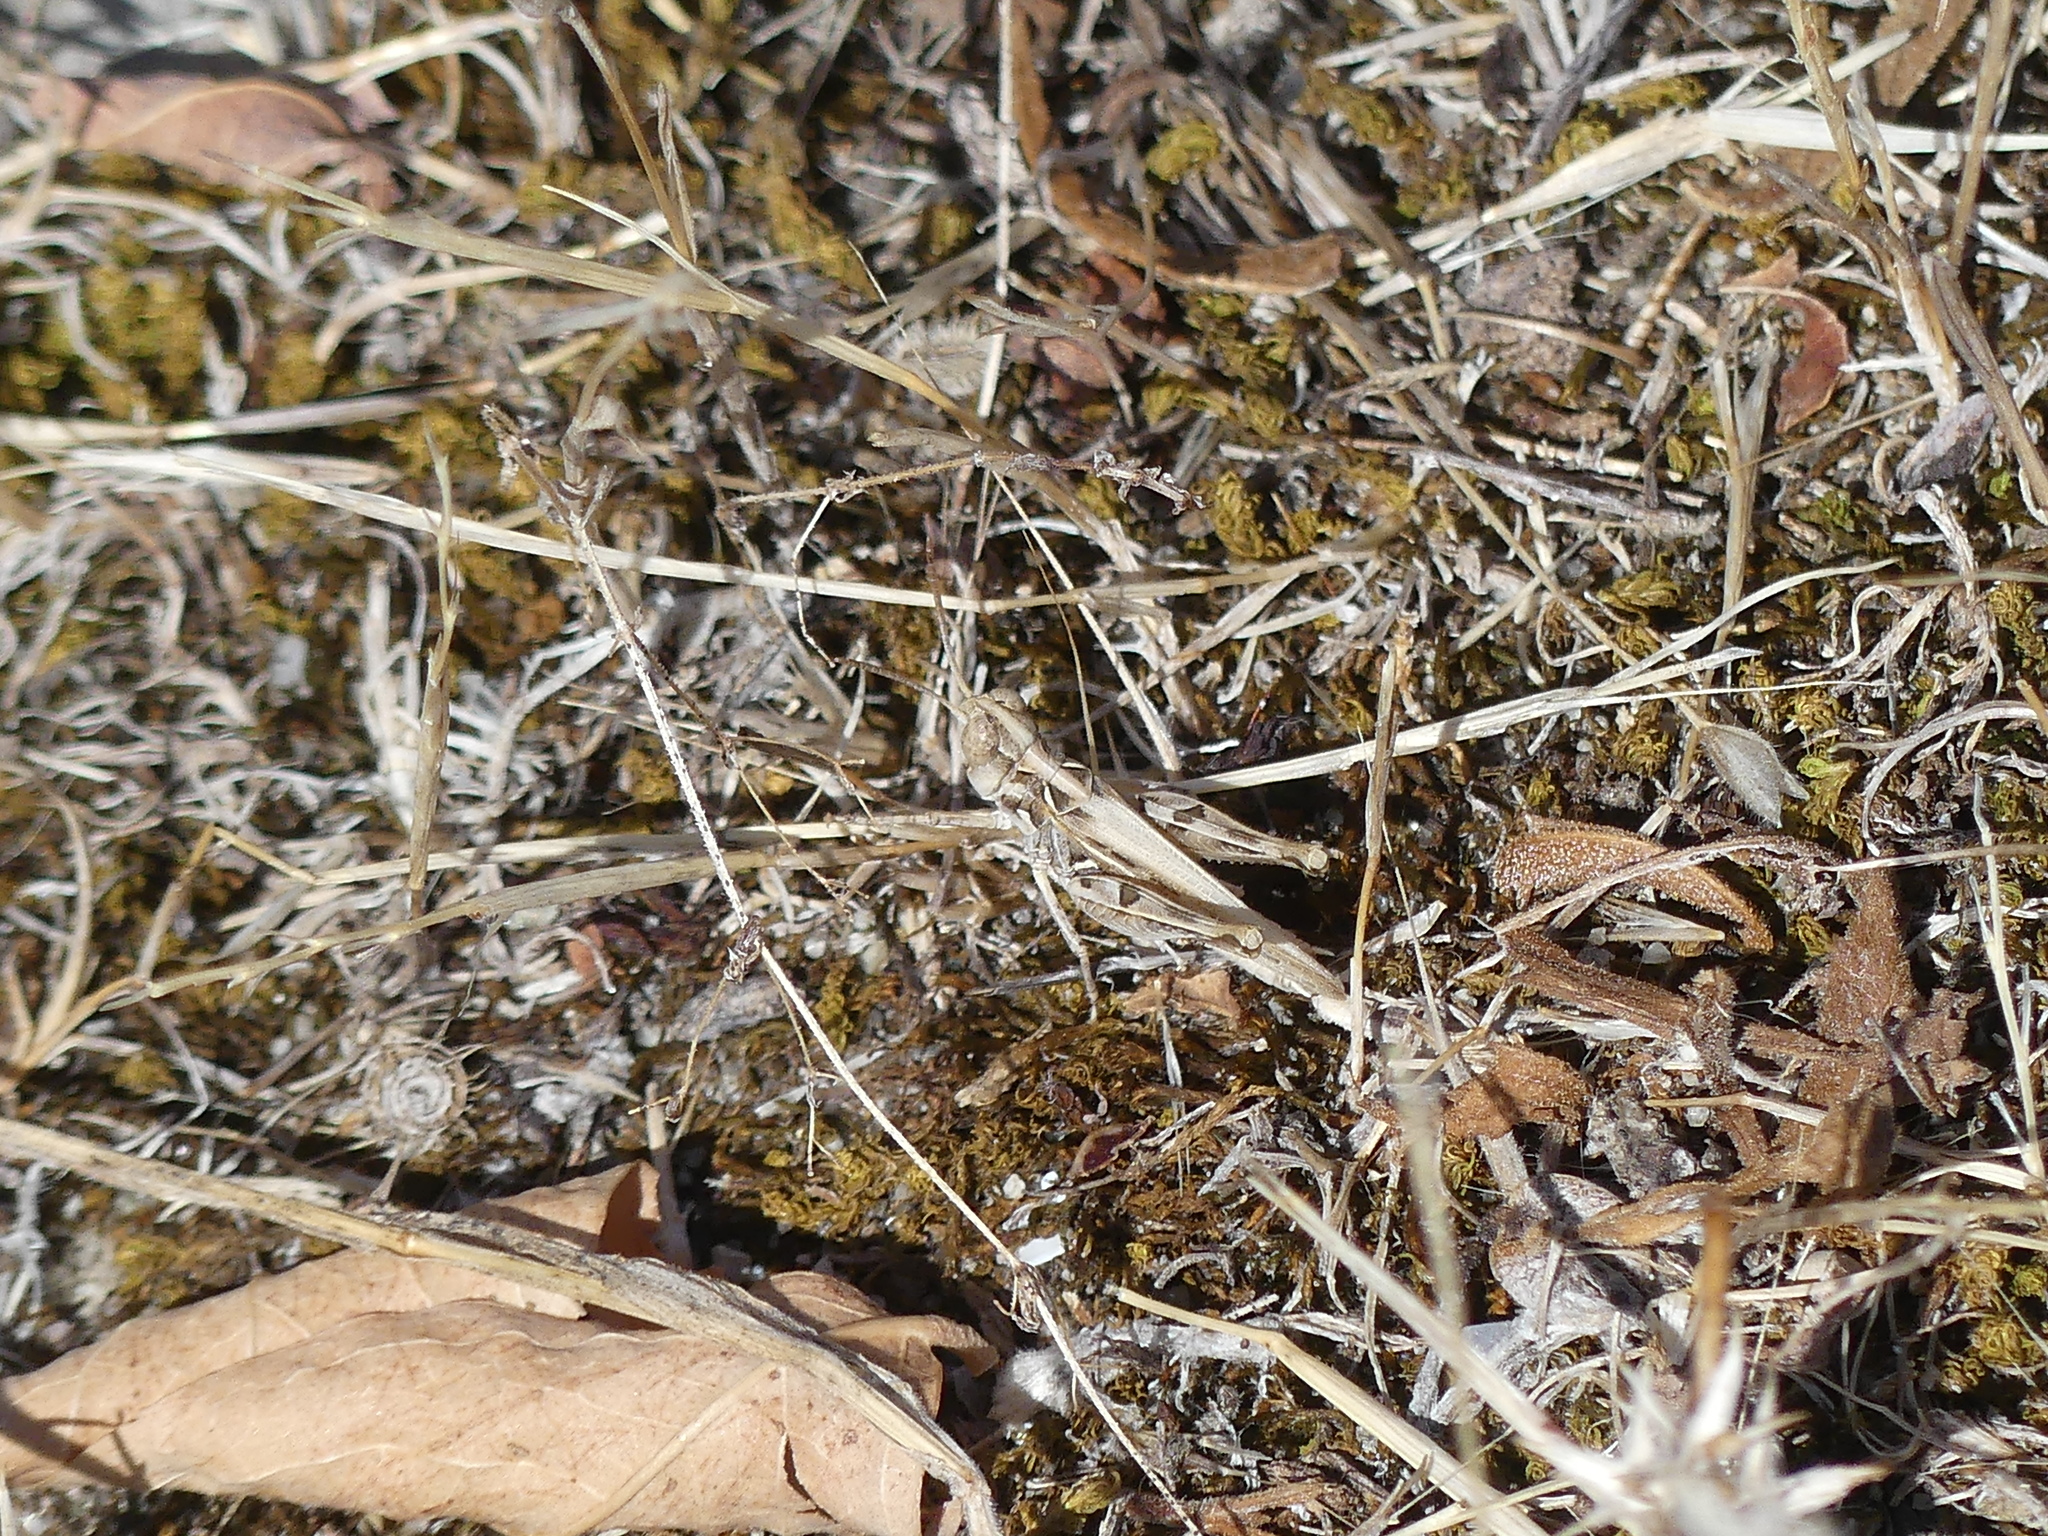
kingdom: Animalia
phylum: Arthropoda
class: Insecta
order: Orthoptera
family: Acrididae
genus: Dociostaurus
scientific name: Dociostaurus jagoi
